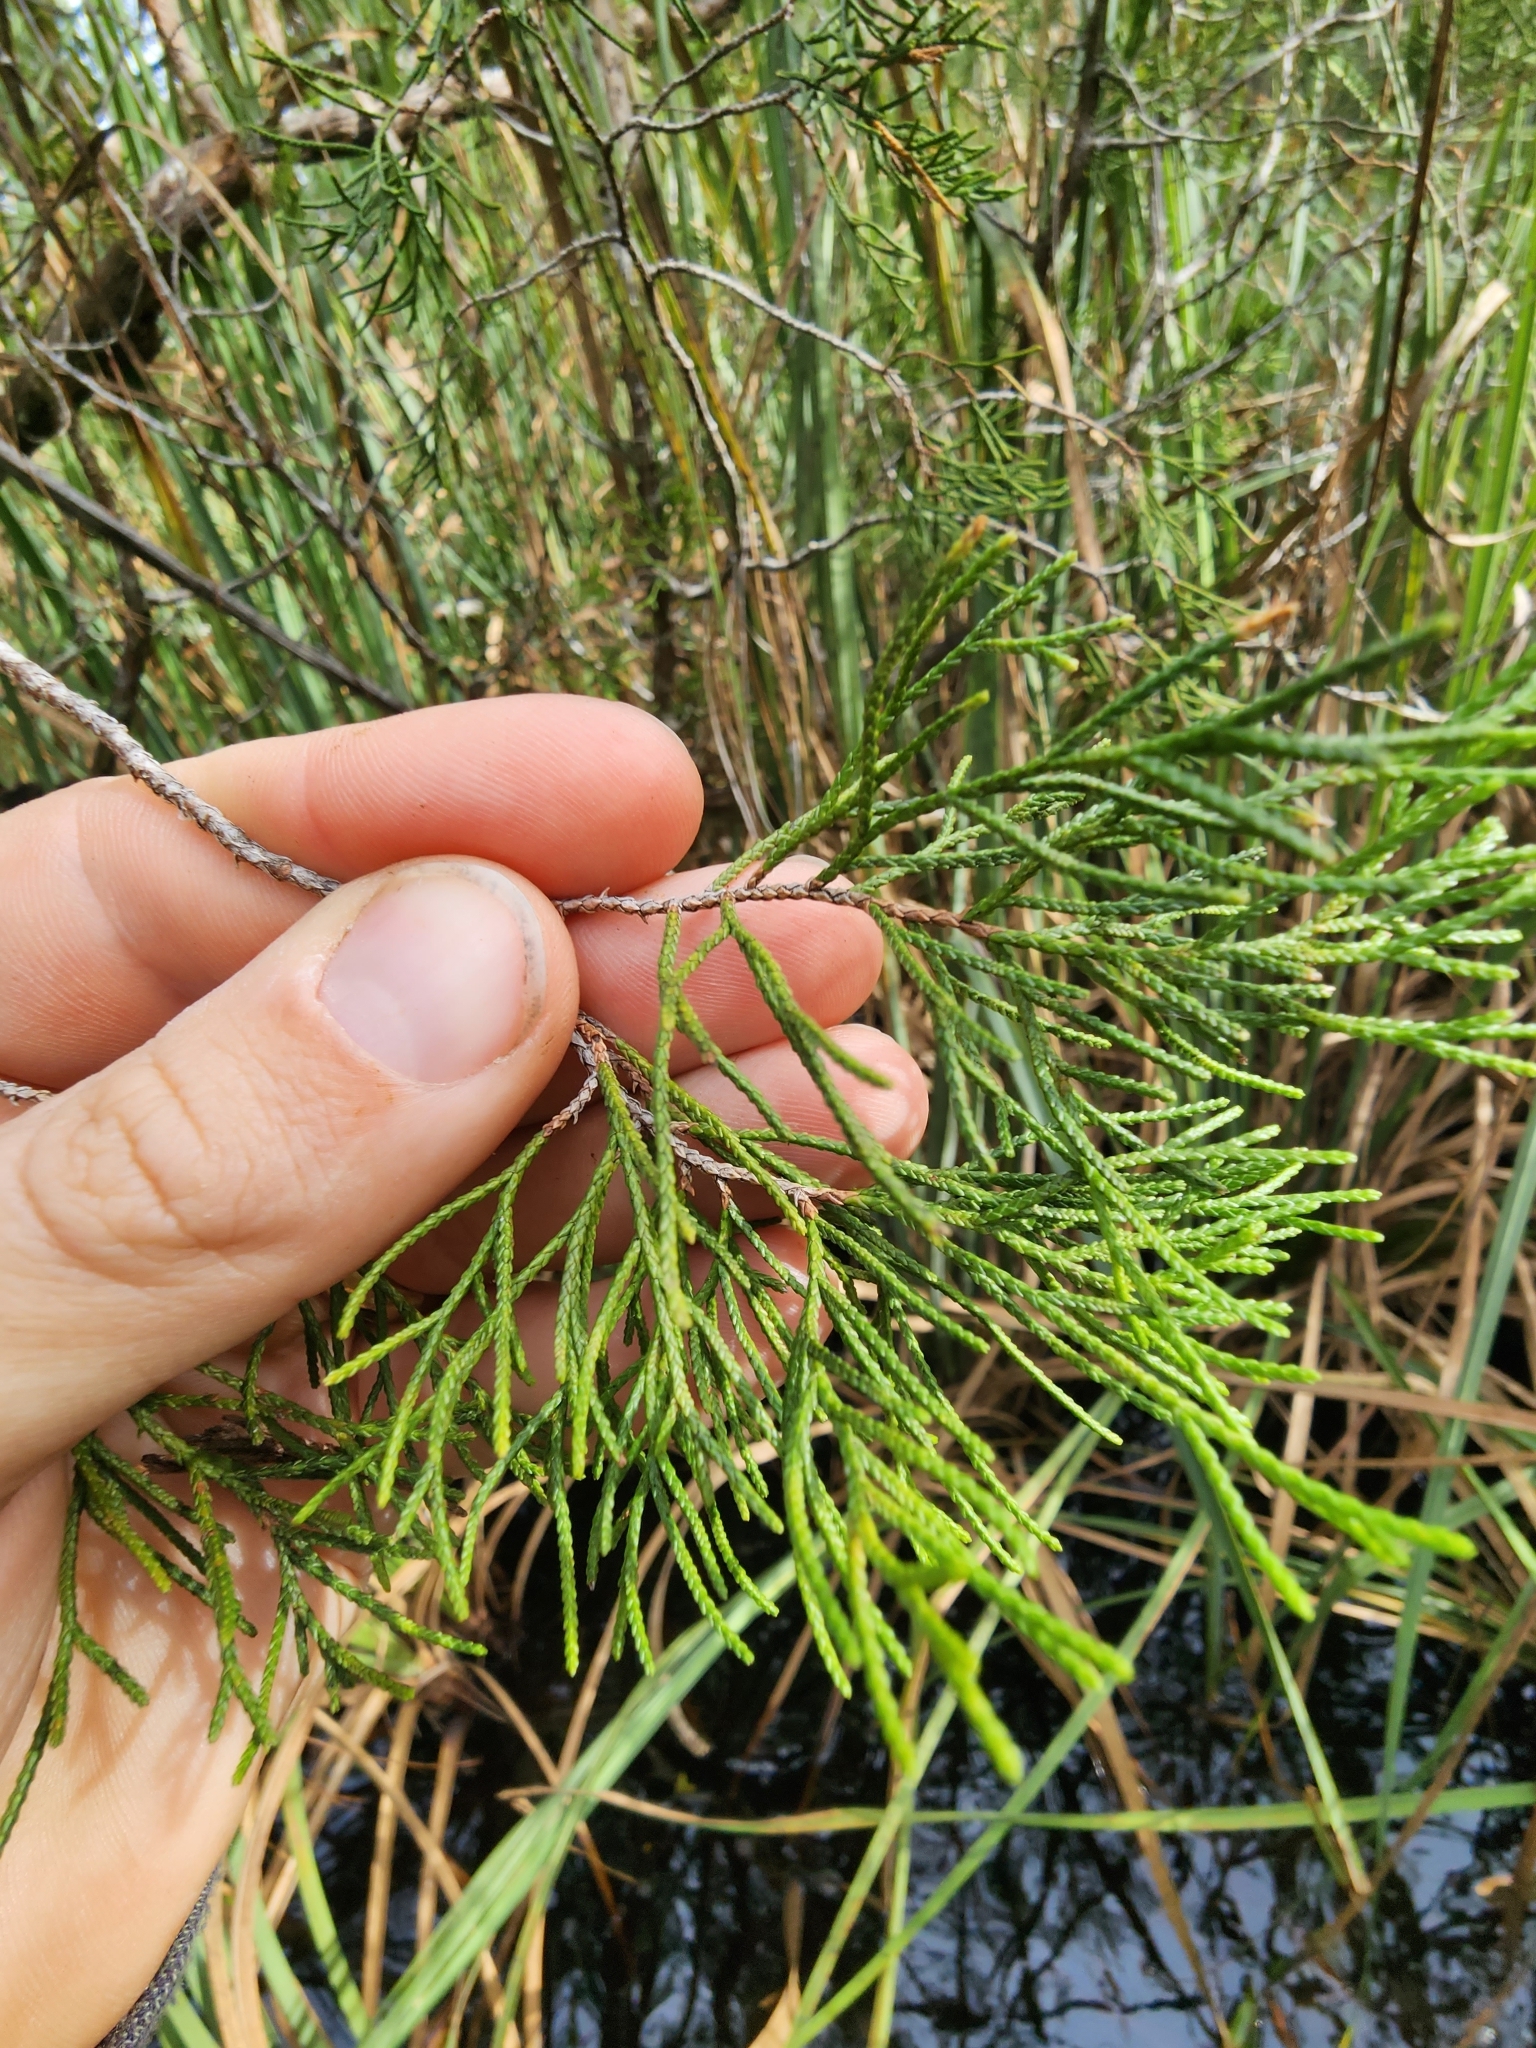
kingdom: Plantae
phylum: Tracheophyta
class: Pinopsida
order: Pinales
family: Cupressaceae
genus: Juniperus
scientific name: Juniperus virginiana
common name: Red juniper
